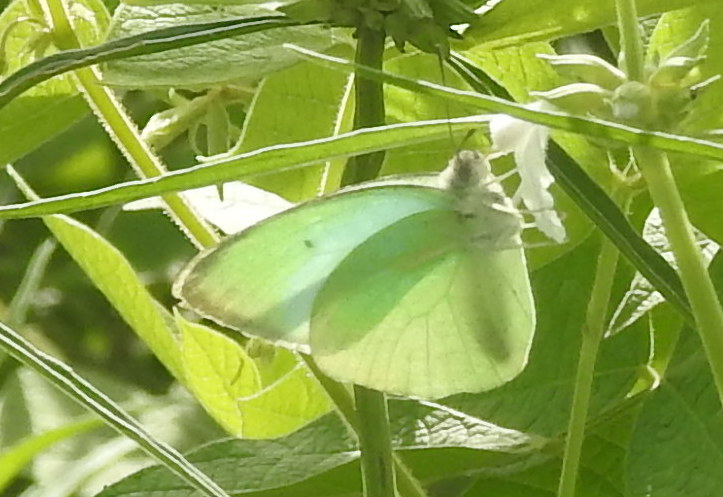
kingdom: Animalia
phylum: Arthropoda
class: Insecta
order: Lepidoptera
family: Pieridae
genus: Catopsilia
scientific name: Catopsilia pyranthe
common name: Mottled emigrant
